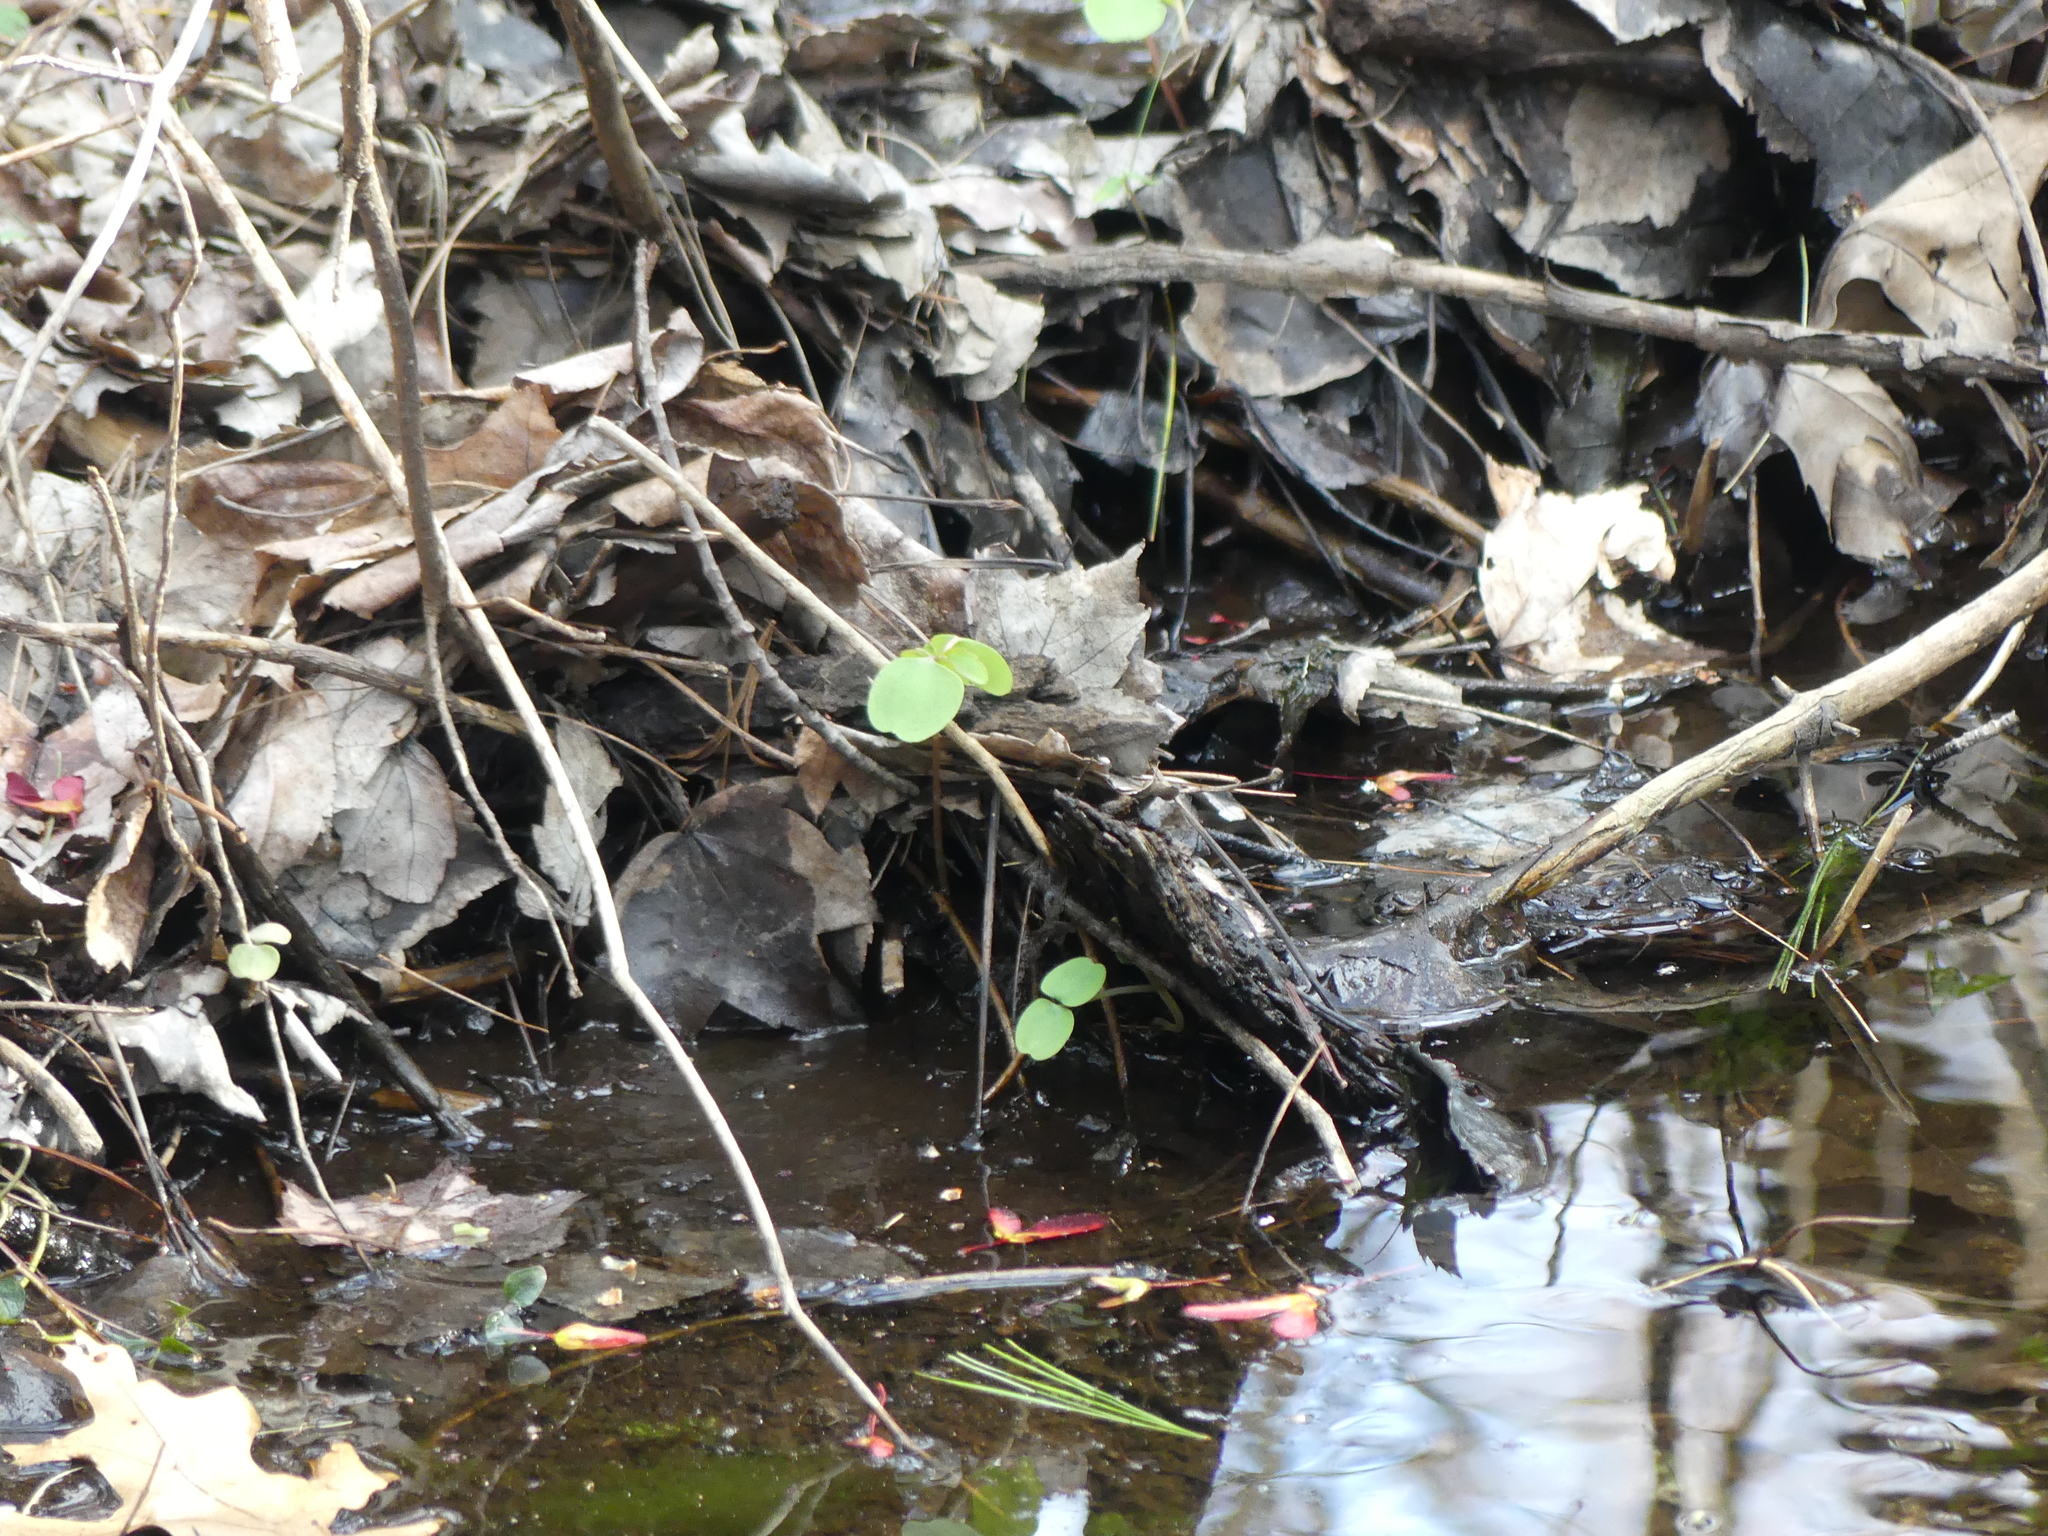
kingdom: Plantae
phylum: Tracheophyta
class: Magnoliopsida
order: Ericales
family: Balsaminaceae
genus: Impatiens
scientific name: Impatiens
